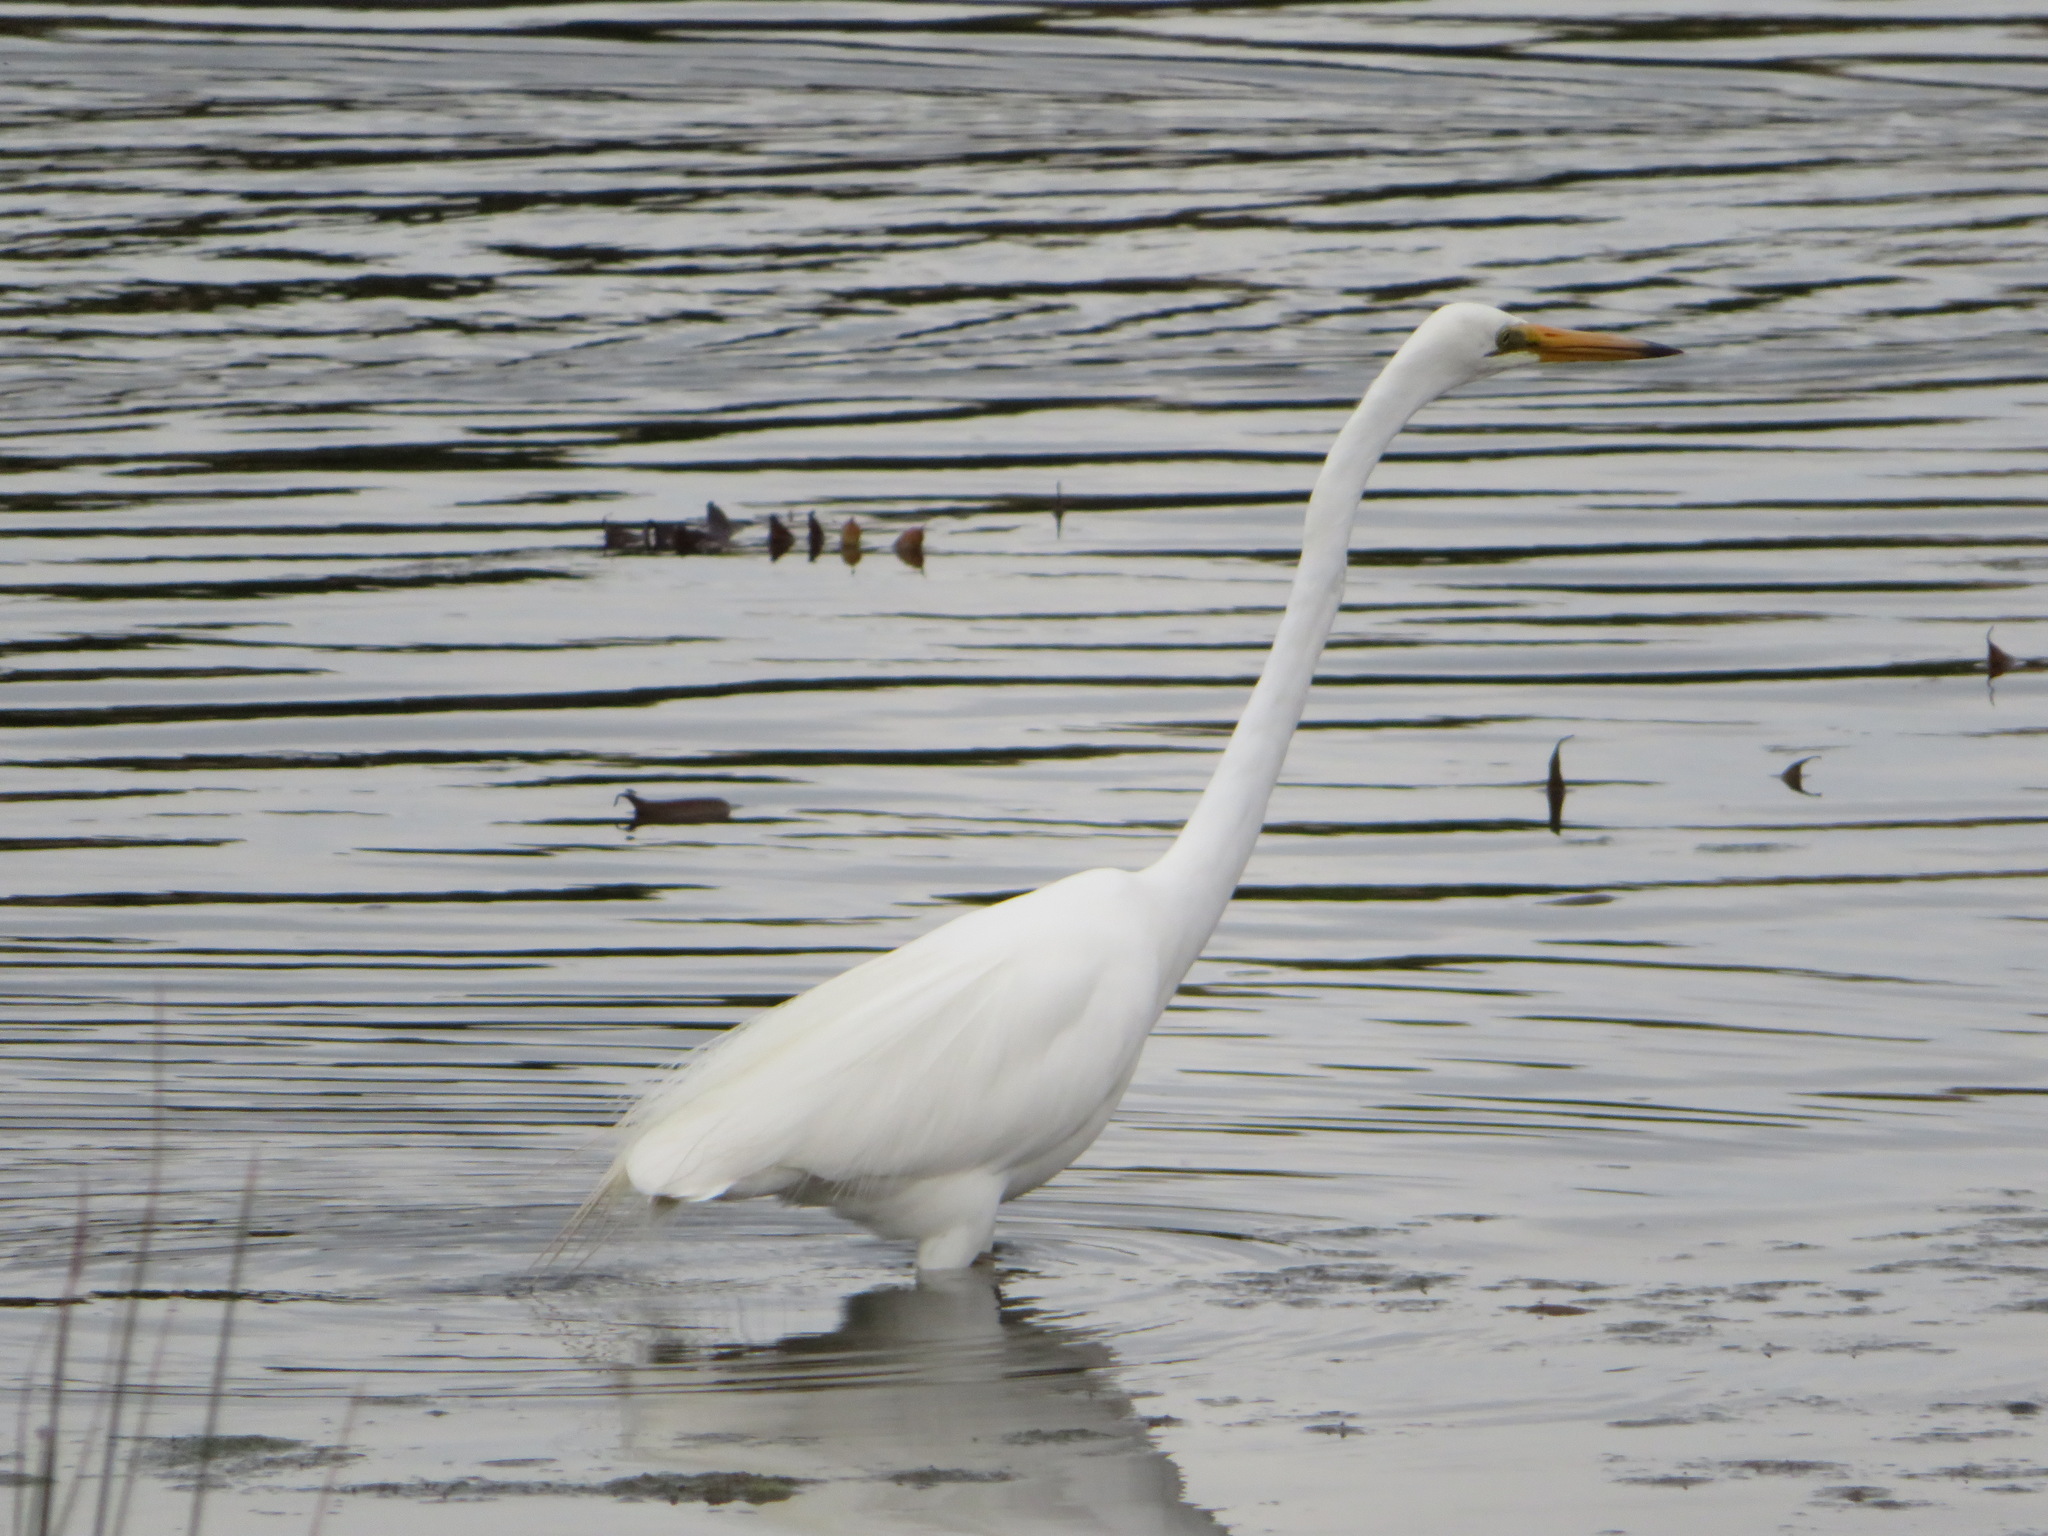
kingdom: Animalia
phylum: Chordata
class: Aves
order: Pelecaniformes
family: Ardeidae
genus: Ardea
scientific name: Ardea modesta
